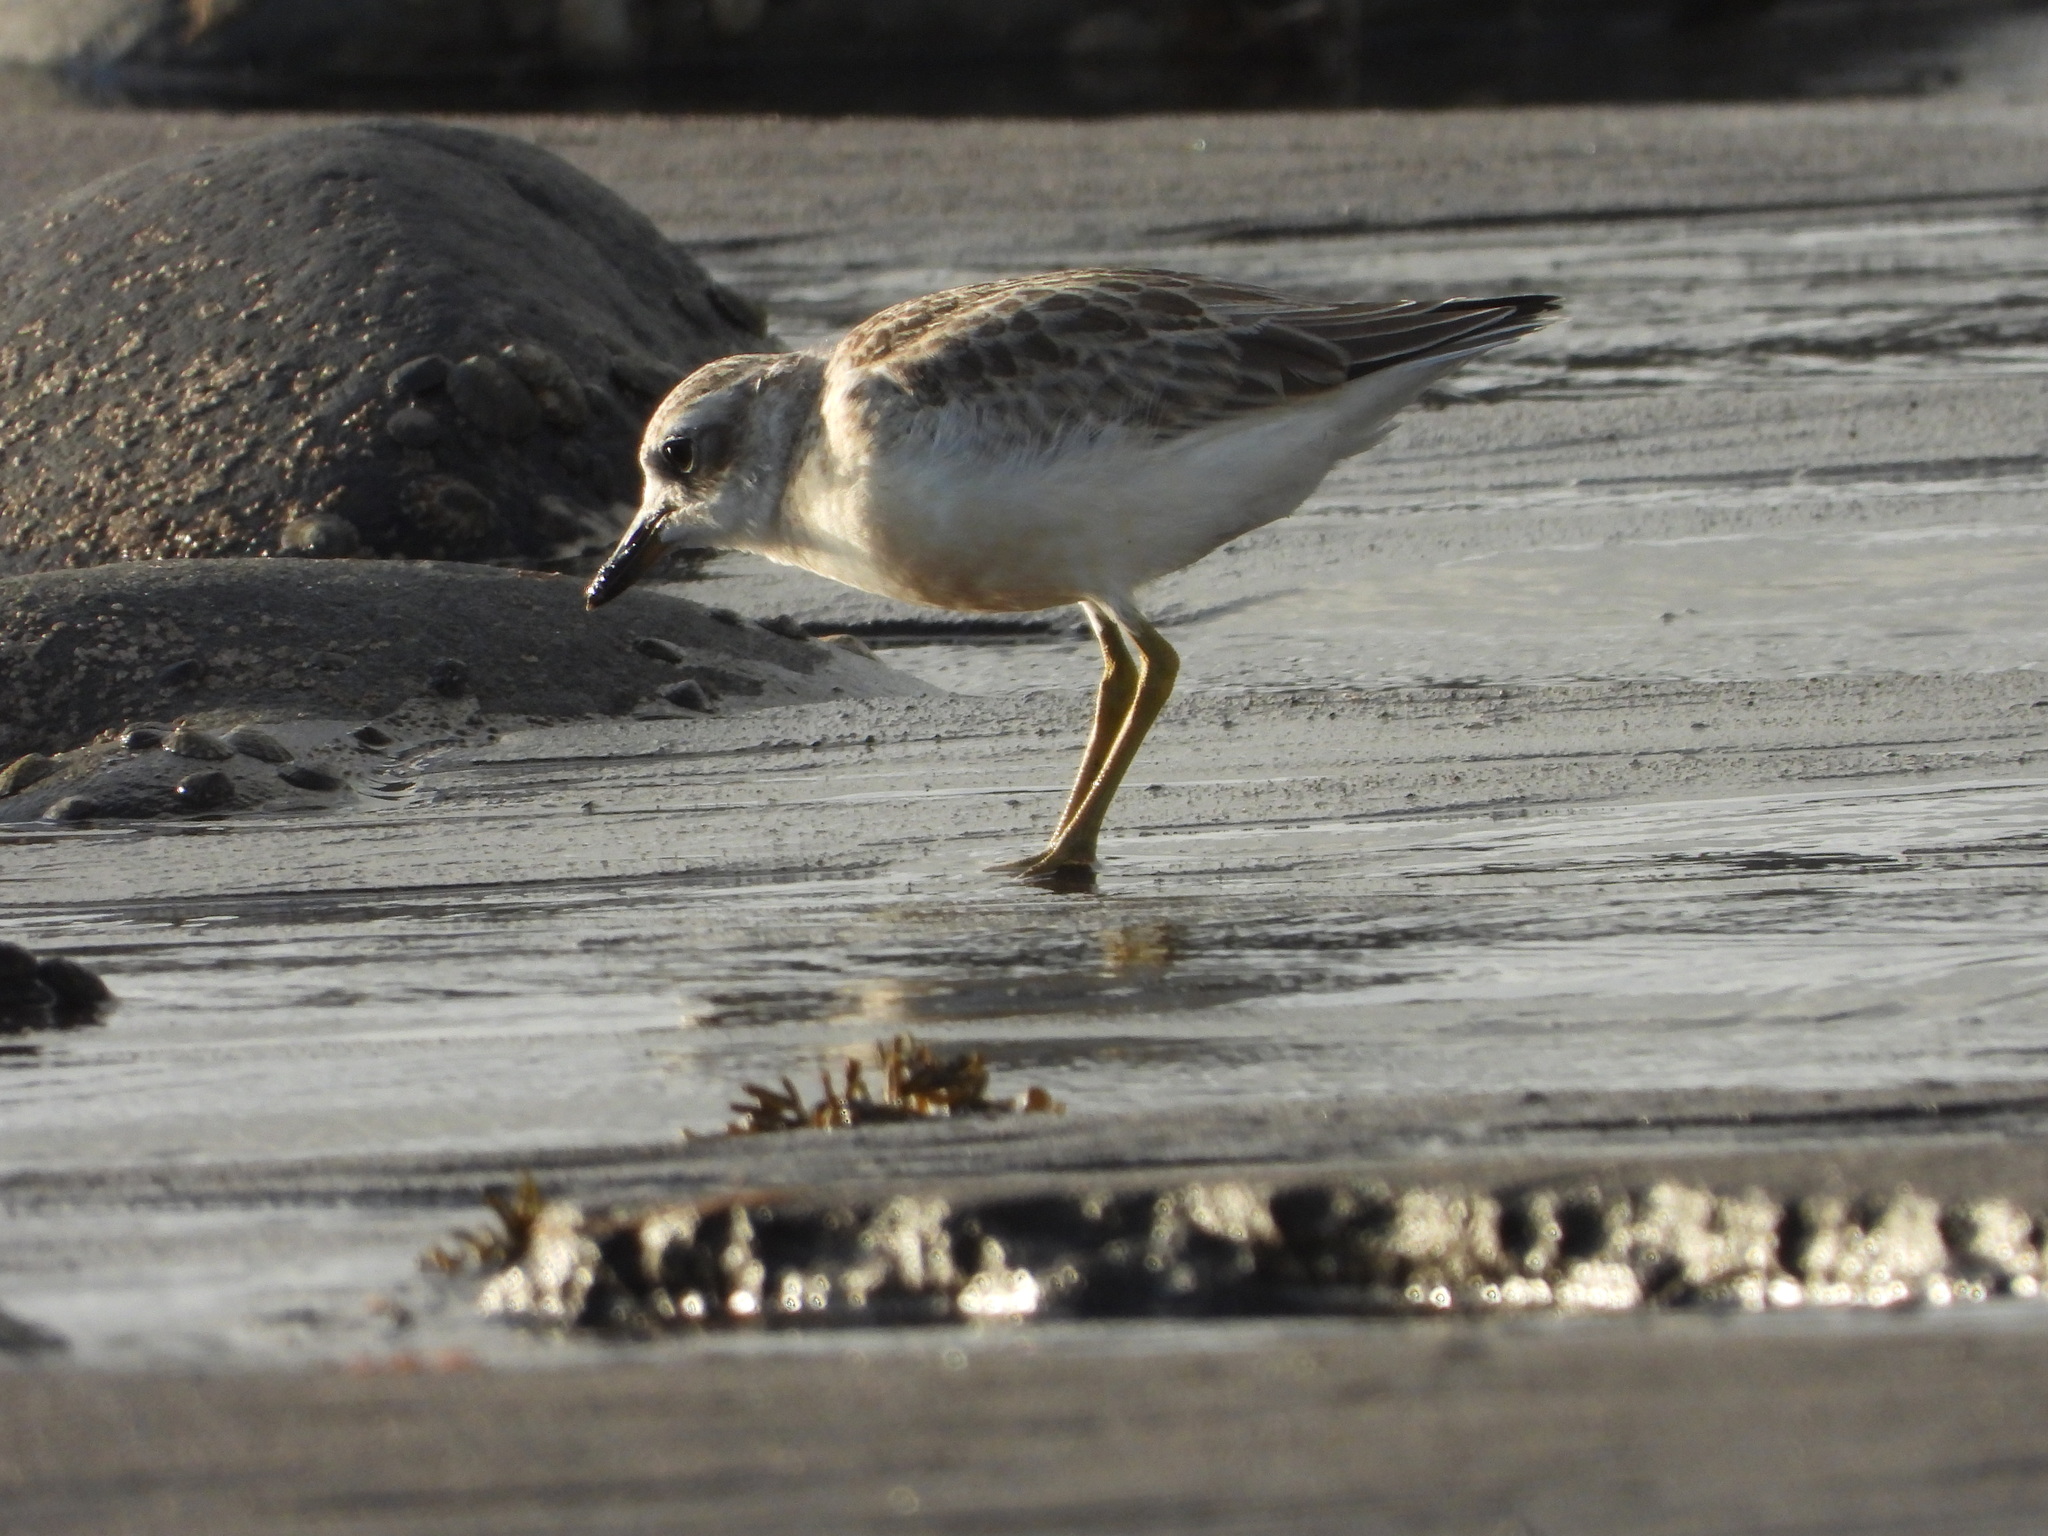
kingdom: Animalia
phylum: Chordata
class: Aves
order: Charadriiformes
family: Charadriidae
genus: Anarhynchus
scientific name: Anarhynchus
